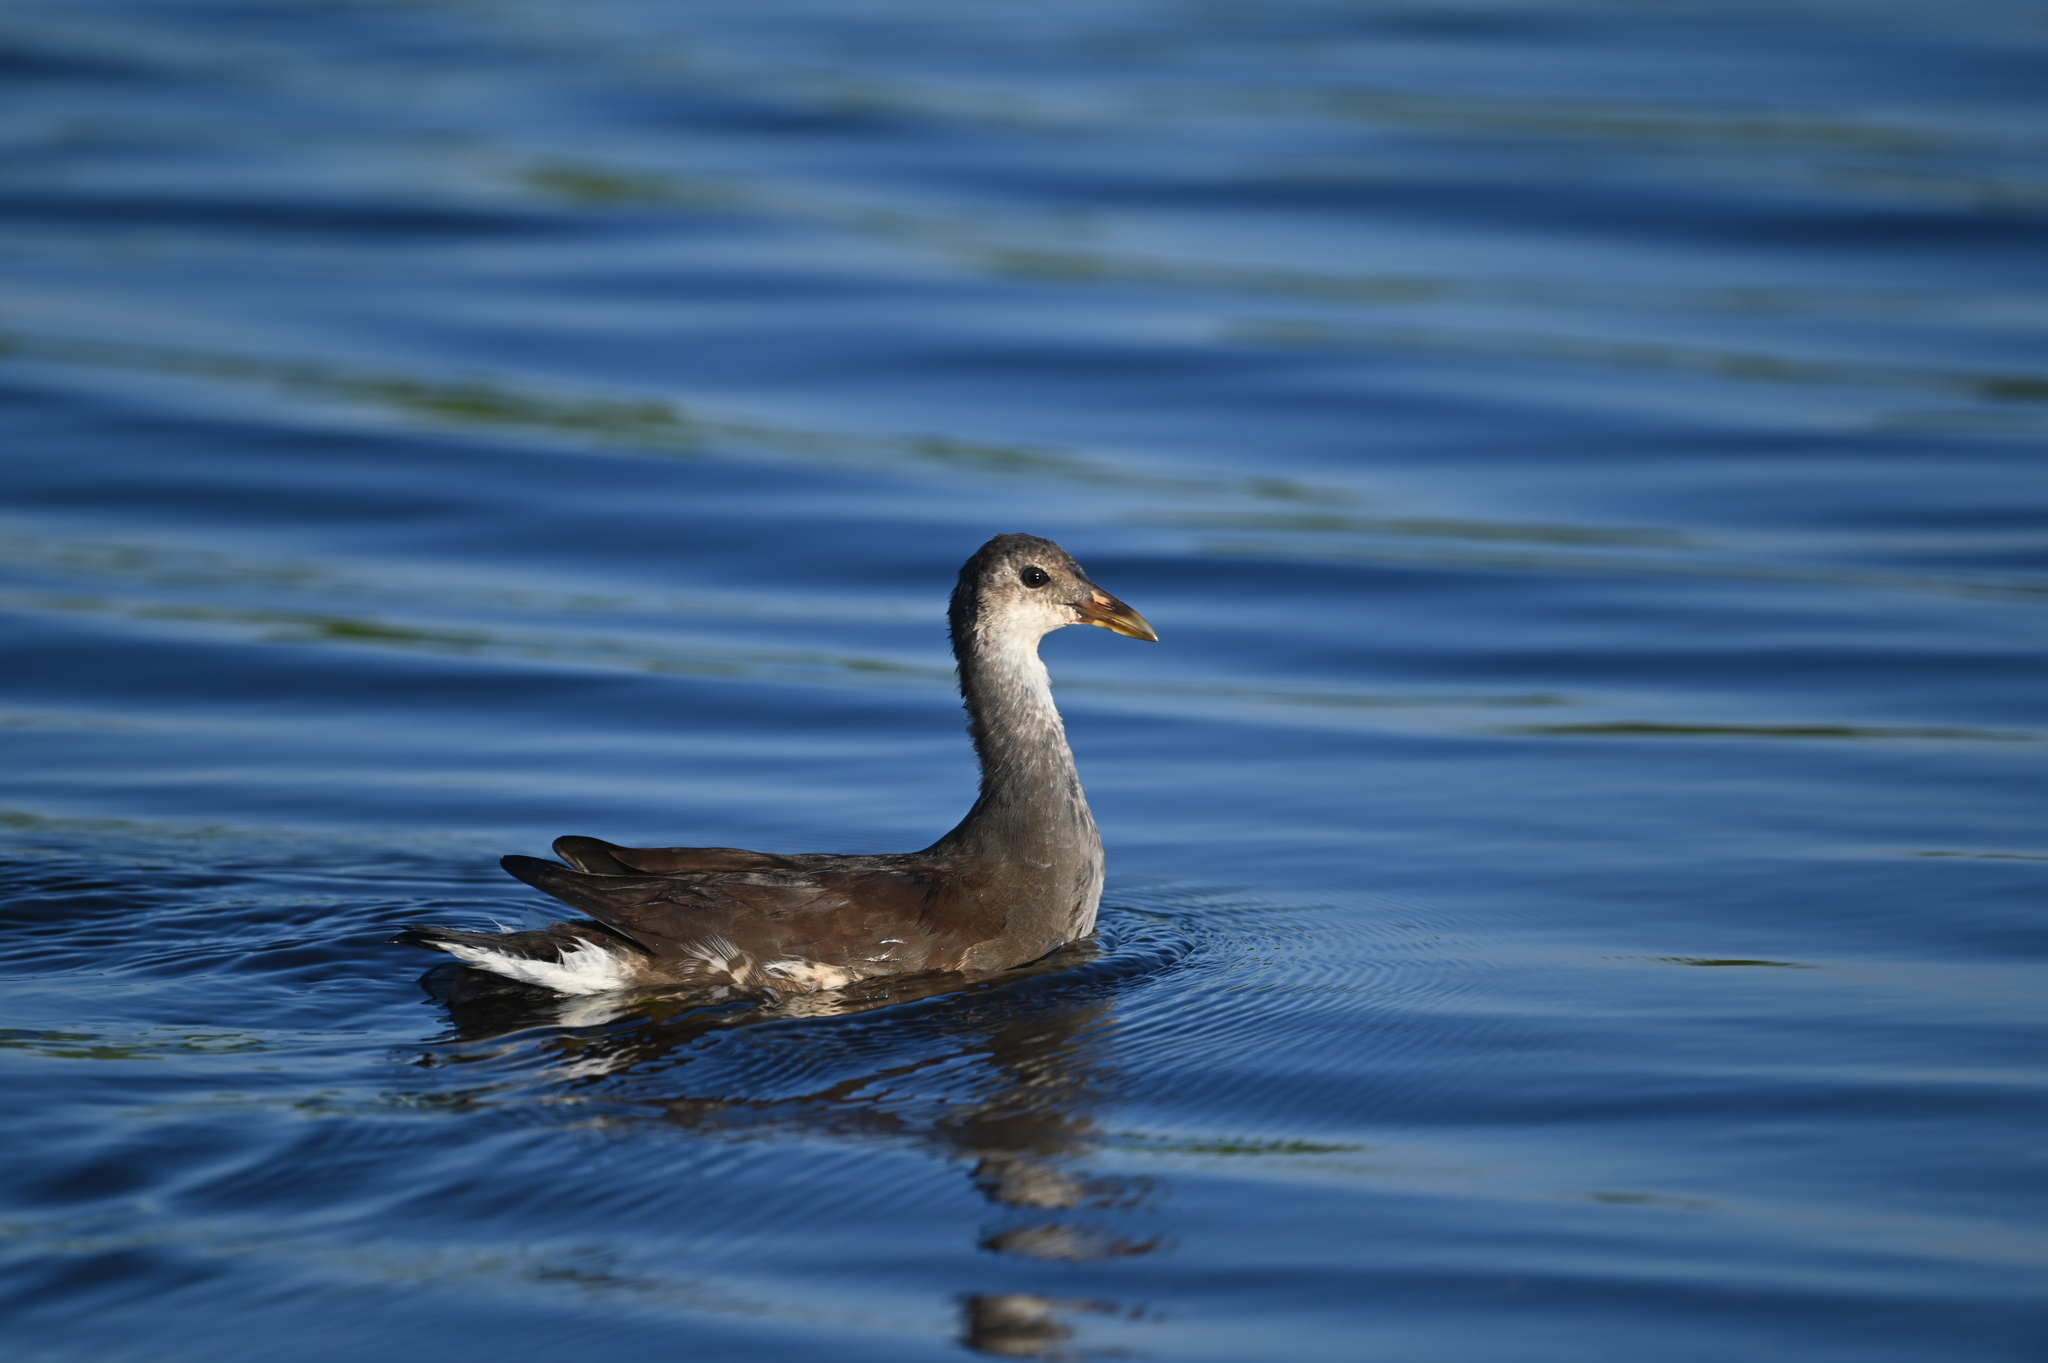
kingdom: Animalia
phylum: Chordata
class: Aves
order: Gruiformes
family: Rallidae
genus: Gallinula
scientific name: Gallinula chloropus
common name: Common moorhen
